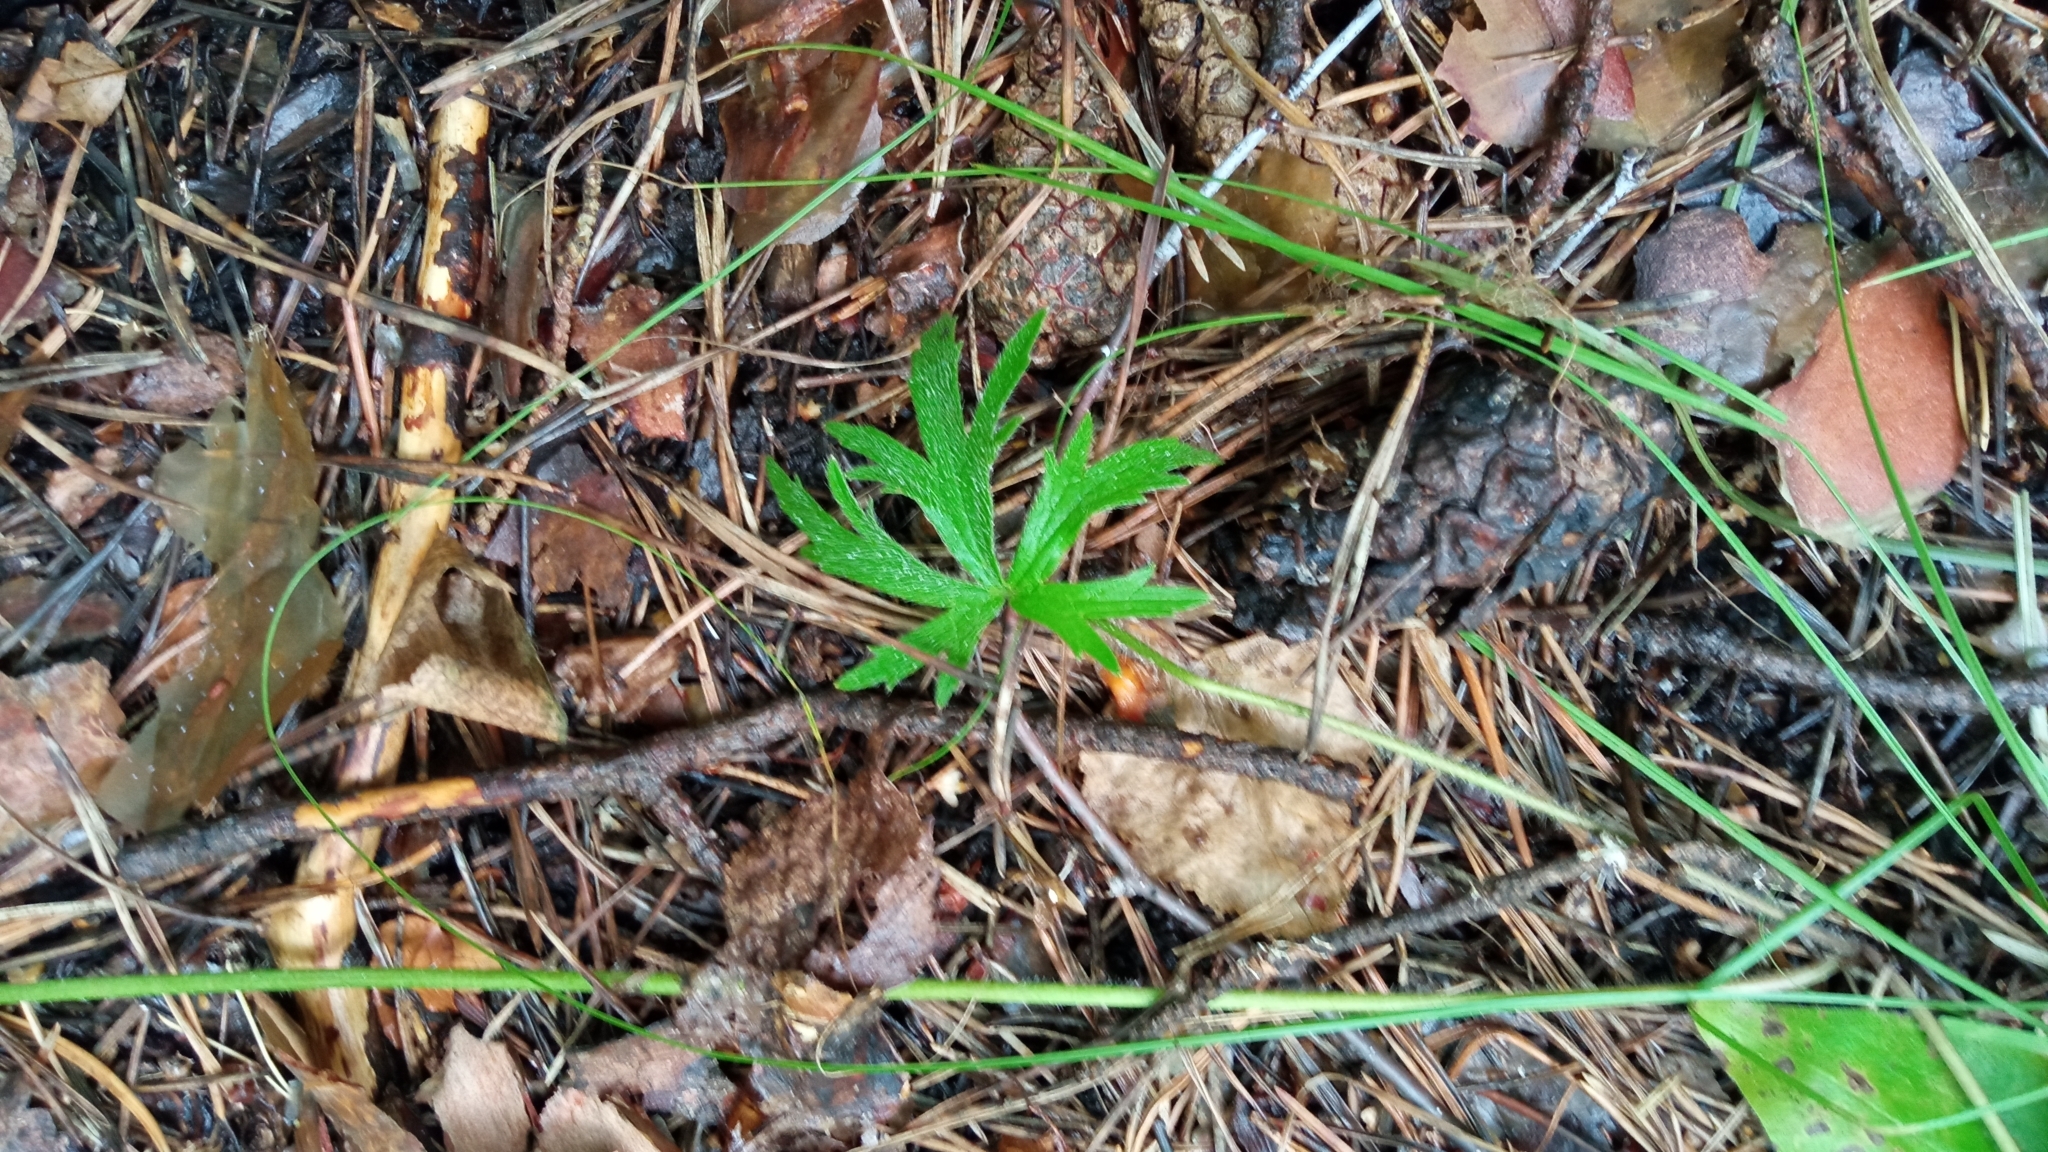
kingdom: Plantae
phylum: Tracheophyta
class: Magnoliopsida
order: Ranunculales
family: Ranunculaceae
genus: Ranunculus
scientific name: Ranunculus polyanthemos
